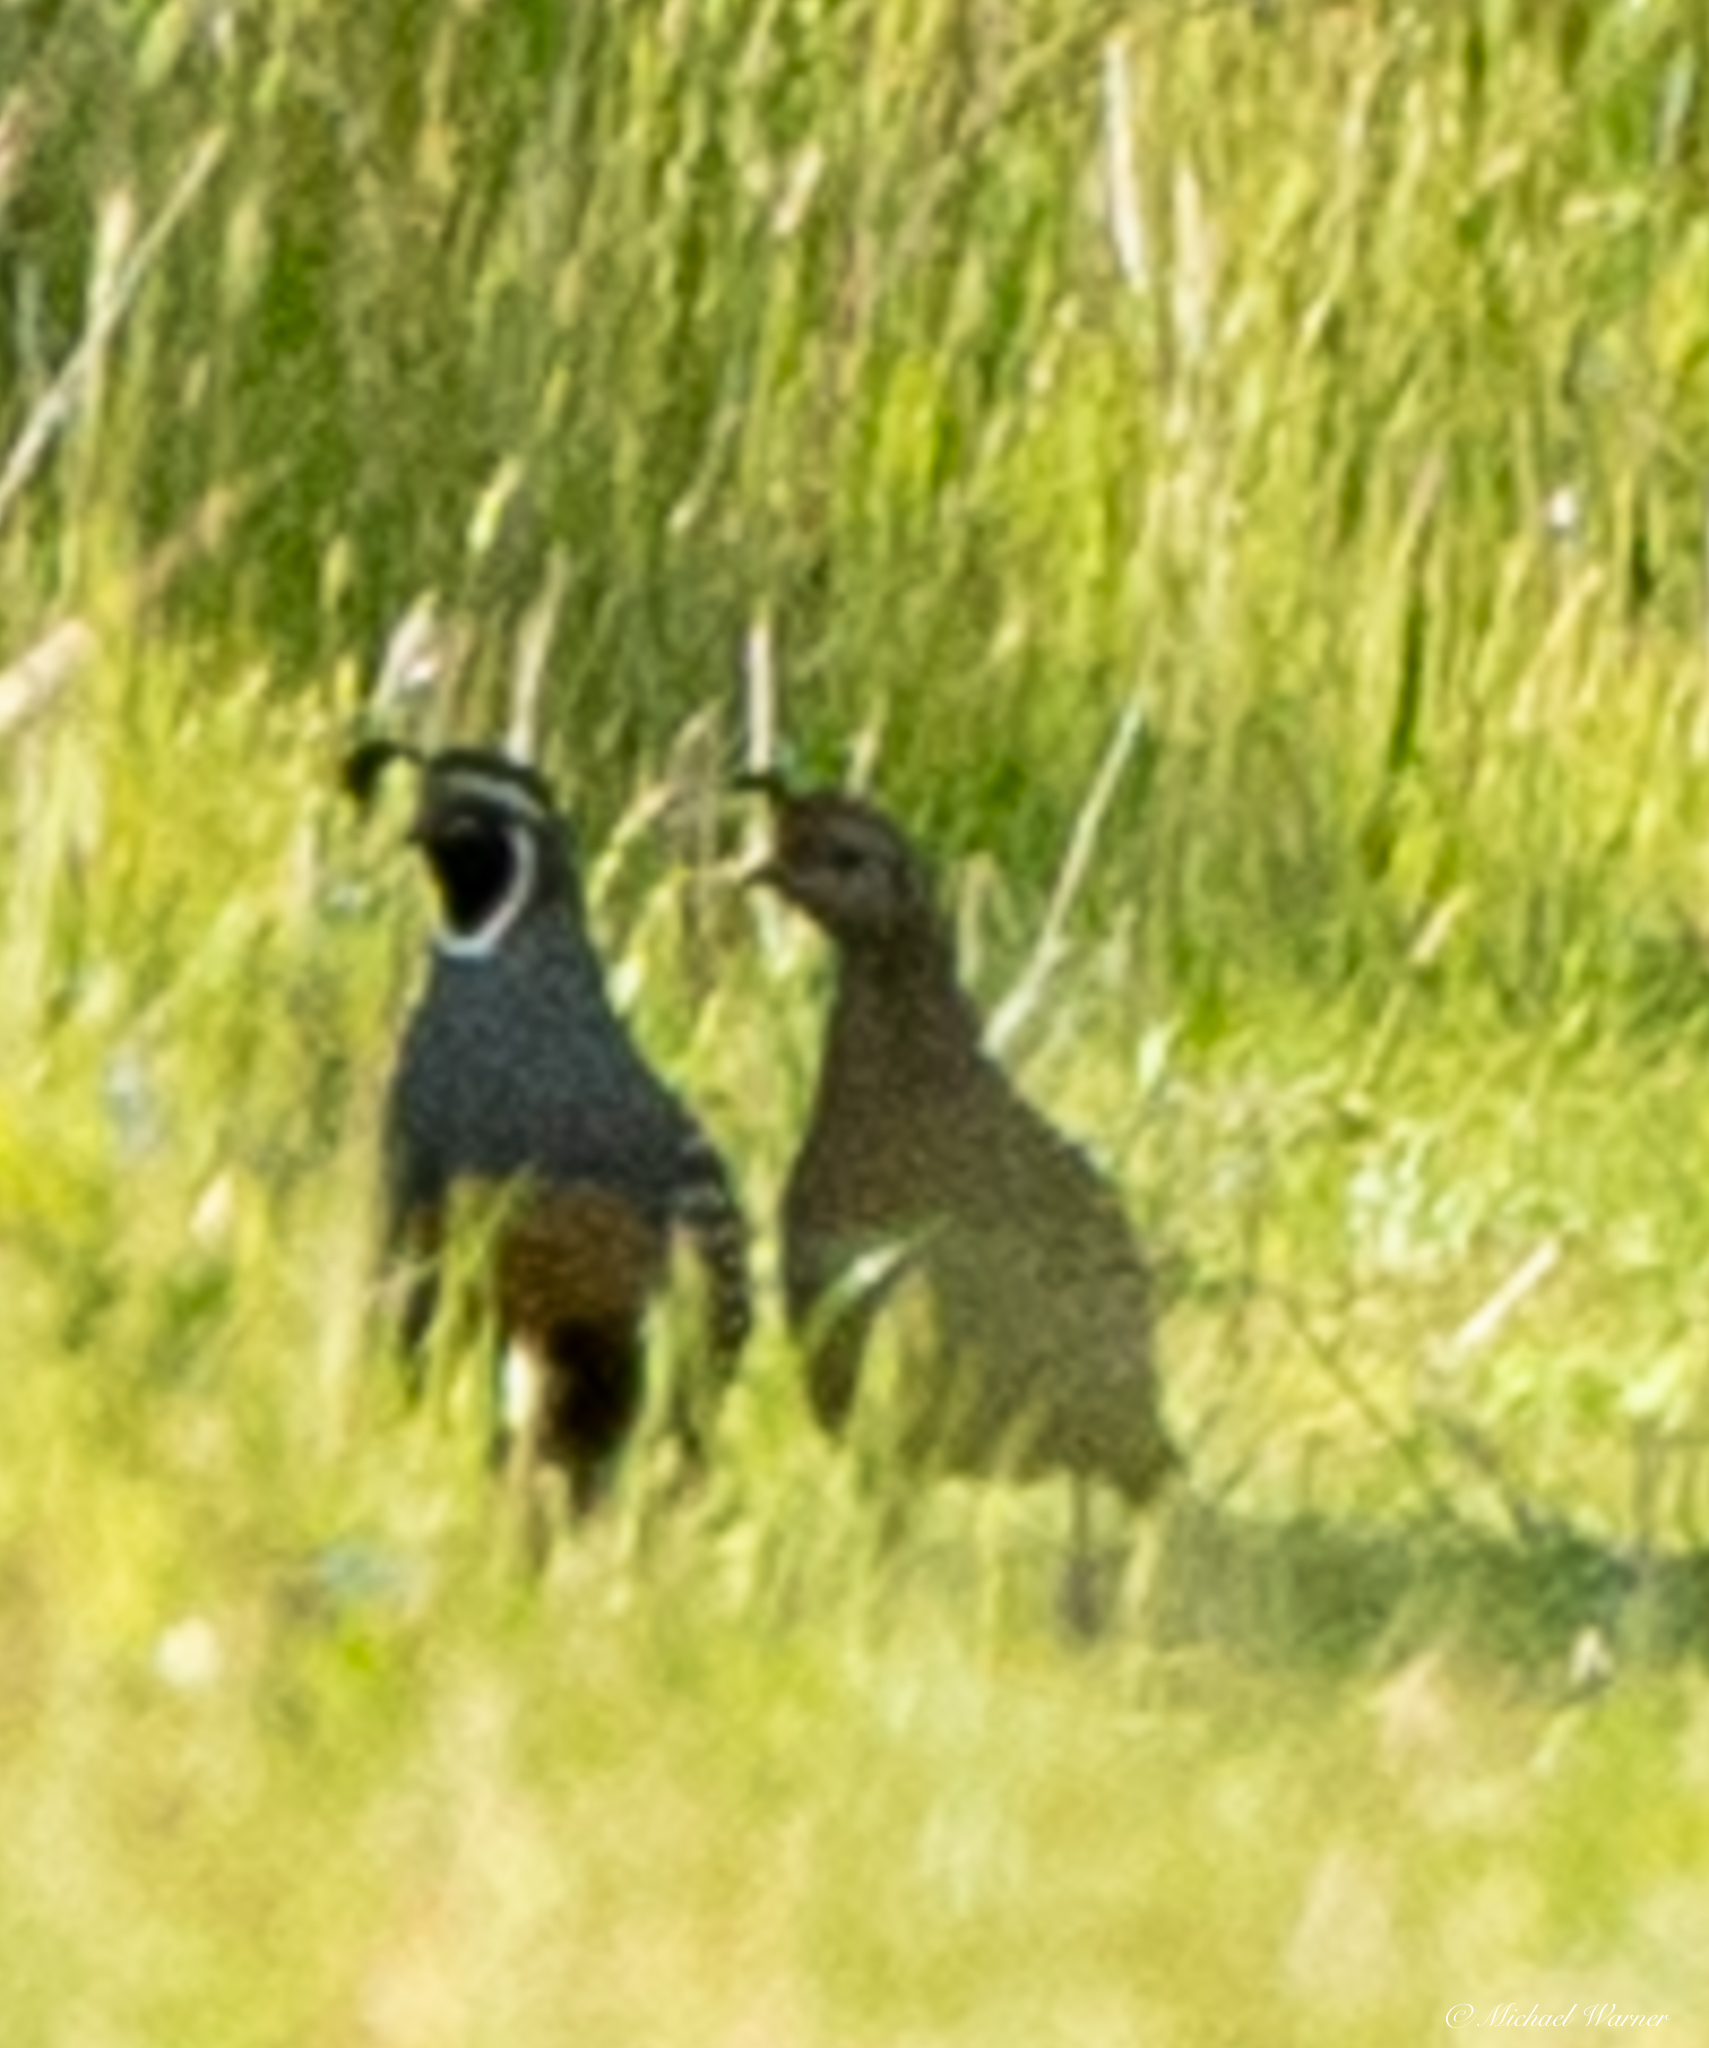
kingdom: Animalia
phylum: Chordata
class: Aves
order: Galliformes
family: Odontophoridae
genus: Callipepla
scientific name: Callipepla californica
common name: California quail
